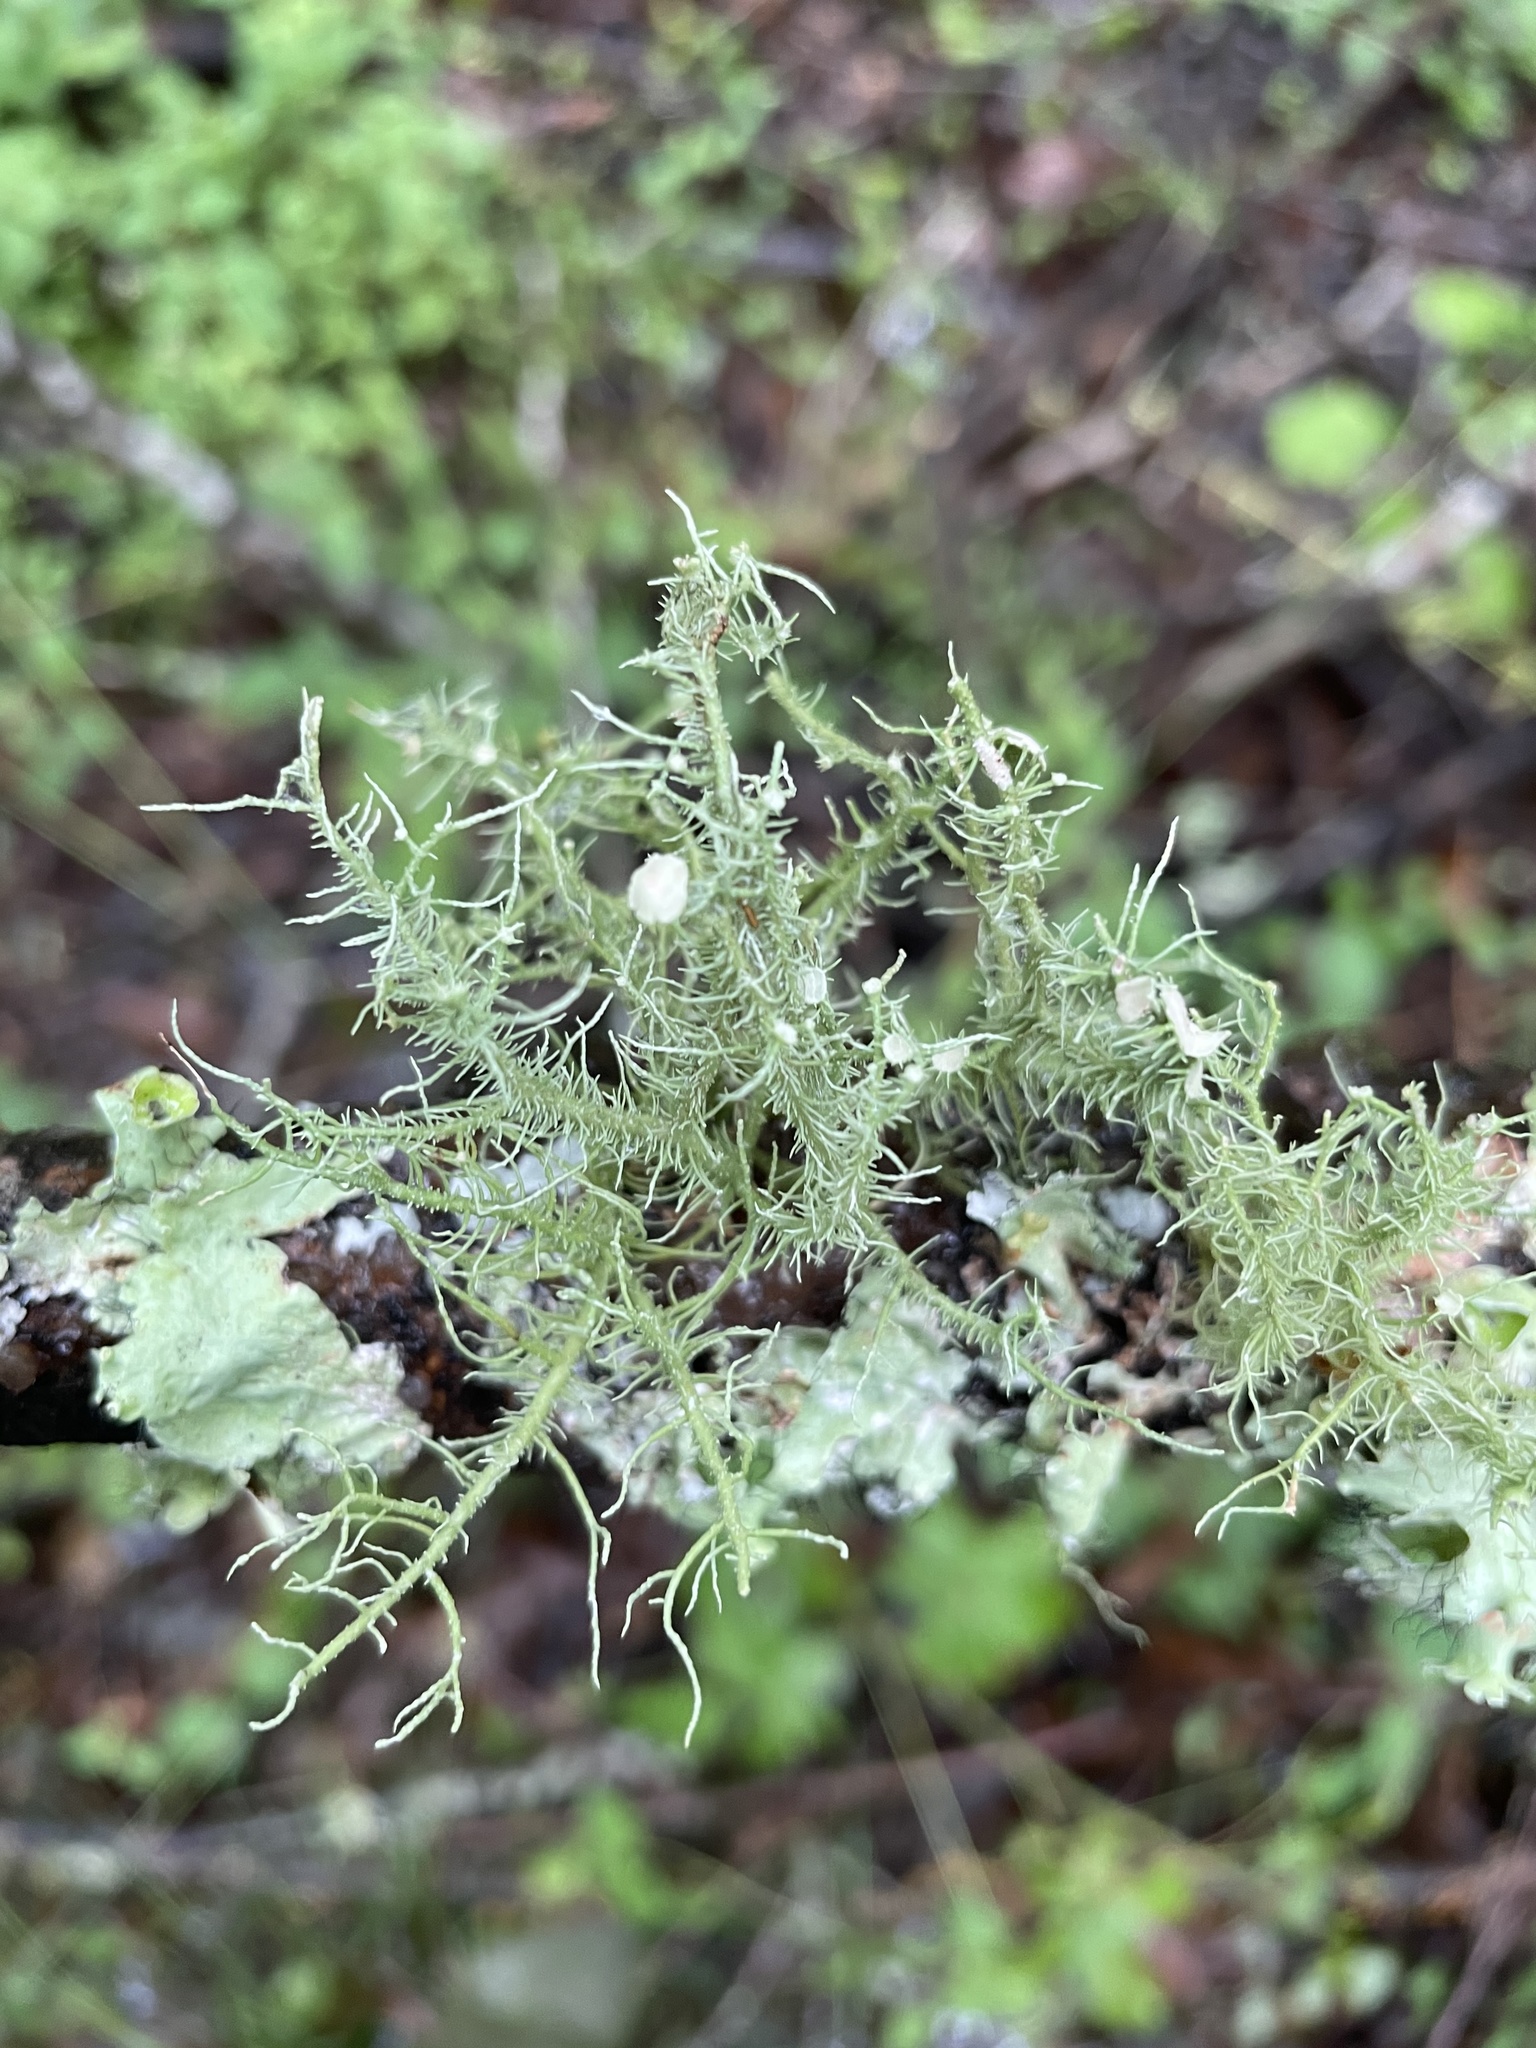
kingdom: Fungi
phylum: Ascomycota
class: Lecanoromycetes
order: Lecanorales
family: Parmeliaceae
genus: Usnea
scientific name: Usnea strigosa
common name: Bushy beard lichen
